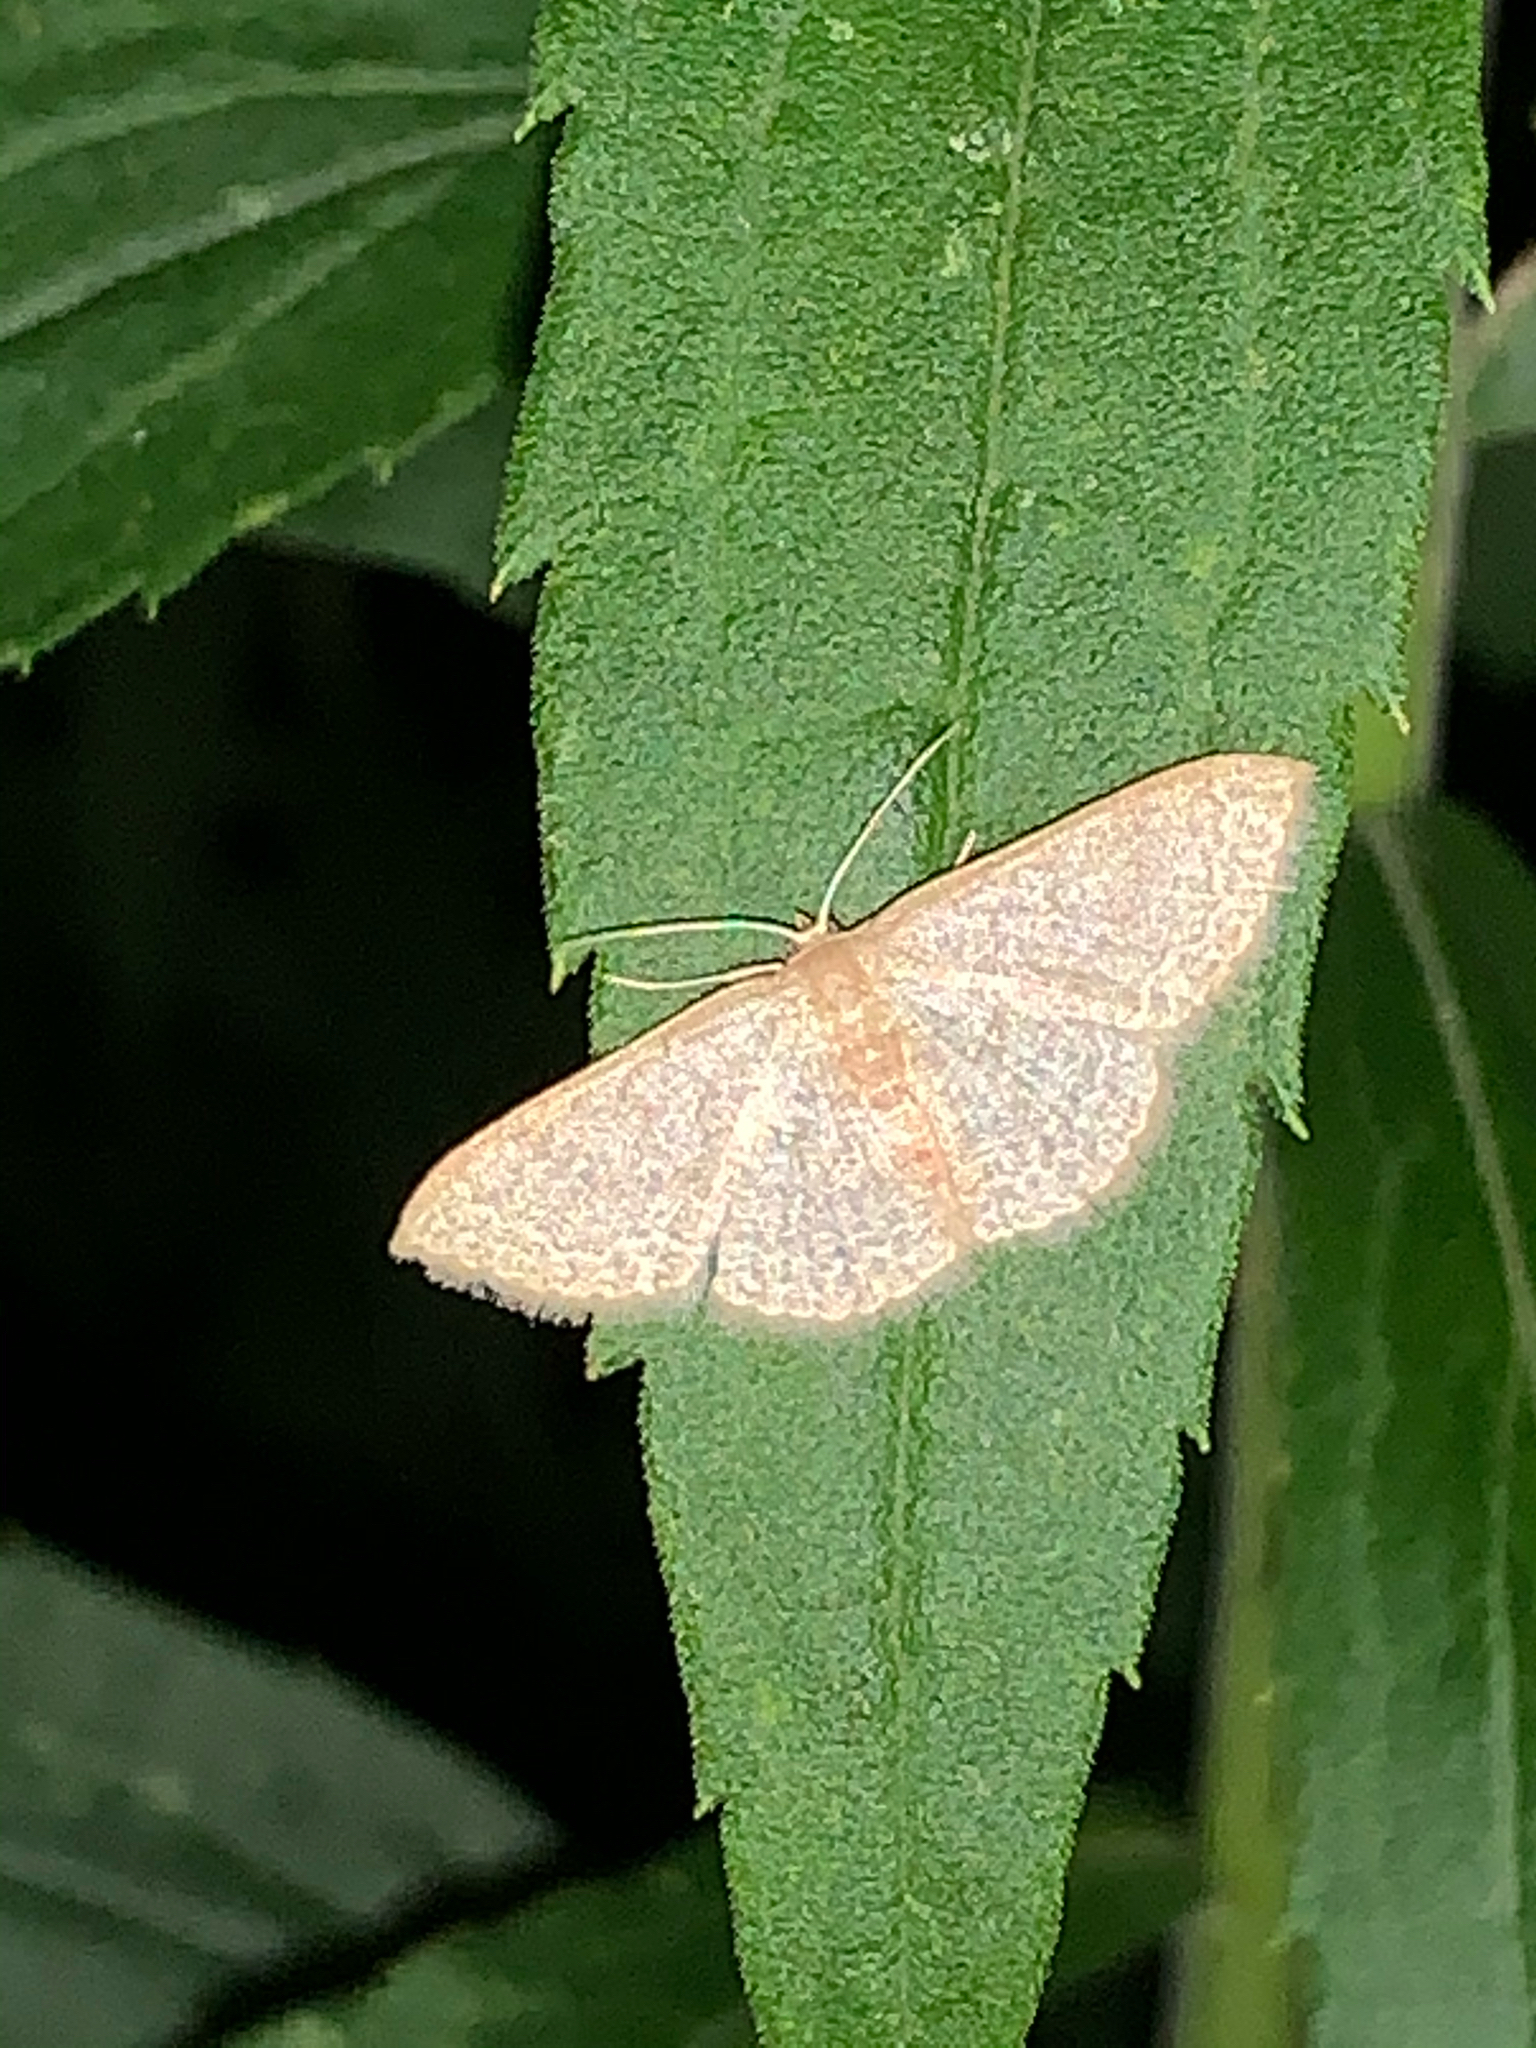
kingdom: Animalia
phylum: Arthropoda
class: Insecta
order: Lepidoptera
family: Geometridae
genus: Pleuroprucha
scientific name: Pleuroprucha insulsaria
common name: Common tan wave
